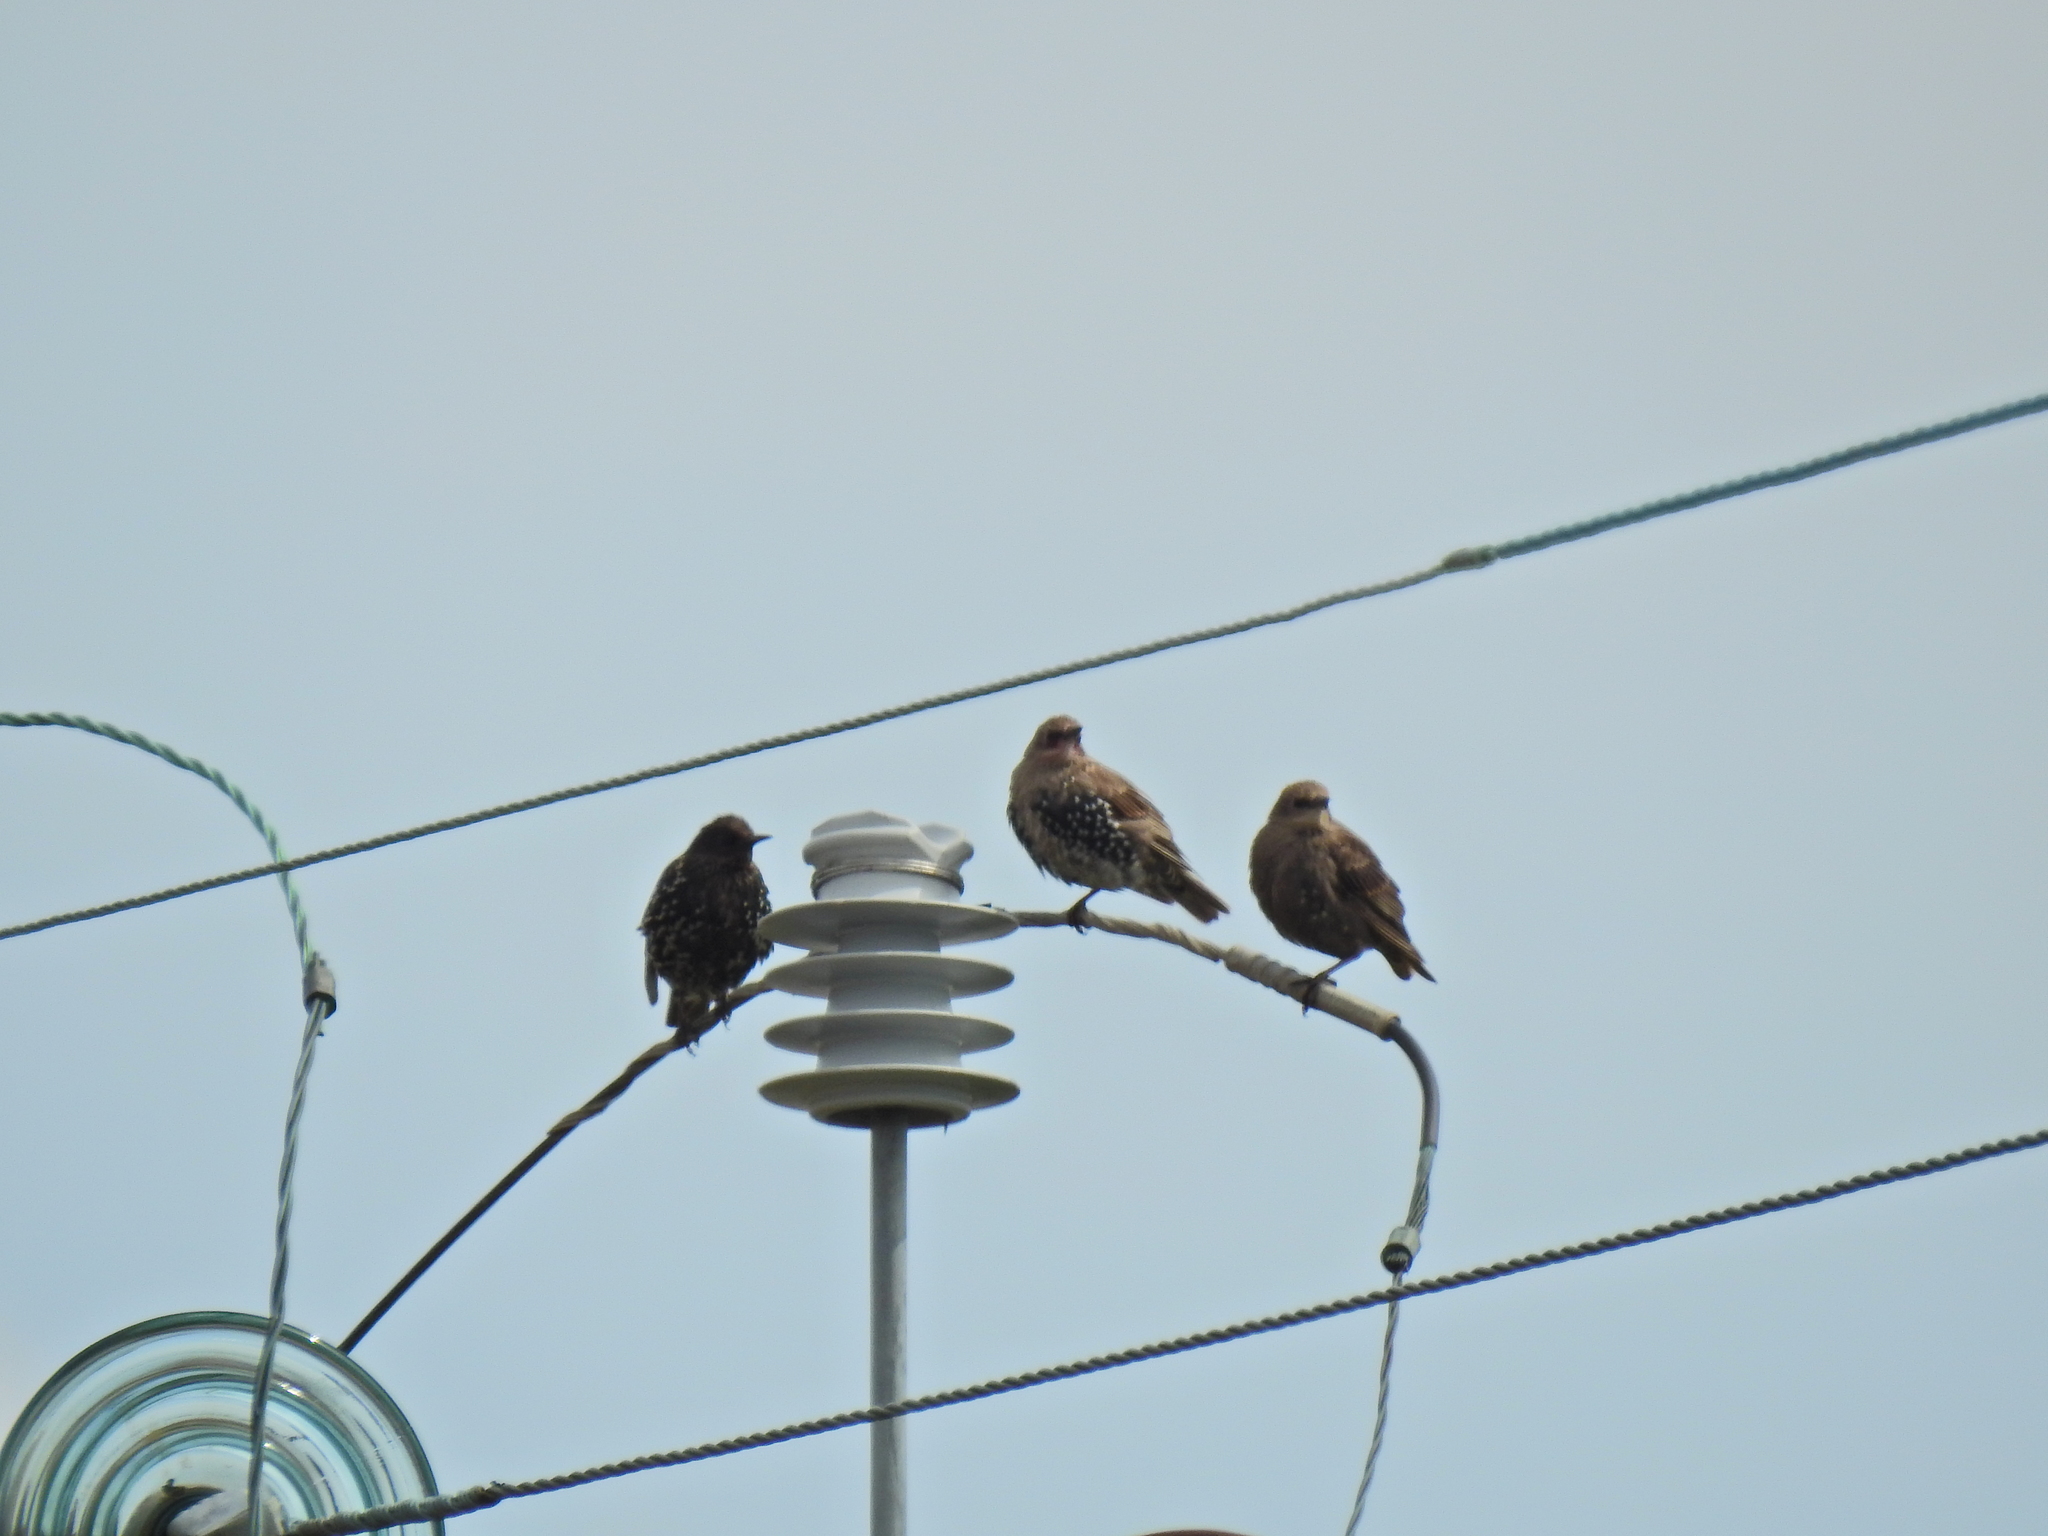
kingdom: Animalia
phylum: Chordata
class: Aves
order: Passeriformes
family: Sturnidae
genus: Sturnus
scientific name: Sturnus vulgaris
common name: Common starling
